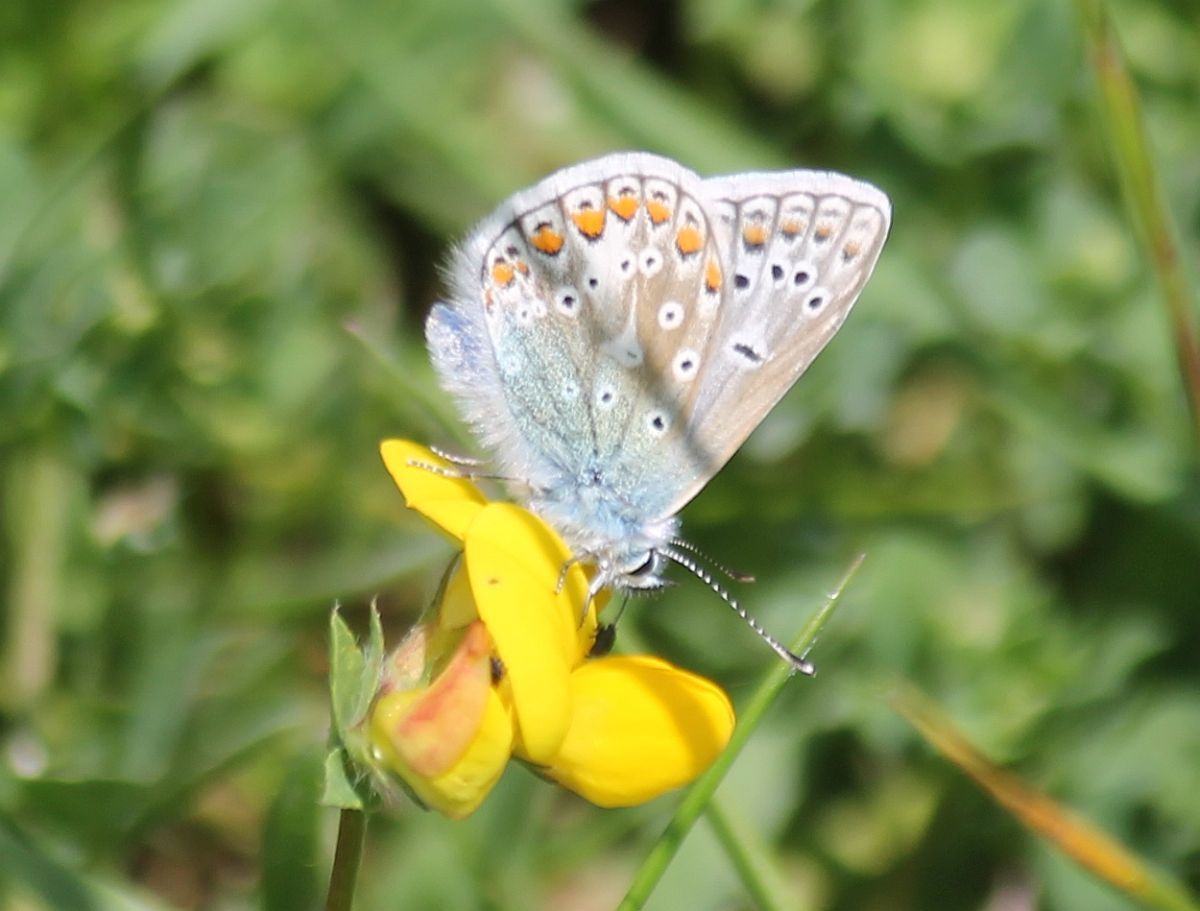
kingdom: Animalia
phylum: Arthropoda
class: Insecta
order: Lepidoptera
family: Lycaenidae
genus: Polyommatus
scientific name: Polyommatus icarus
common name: Common blue
